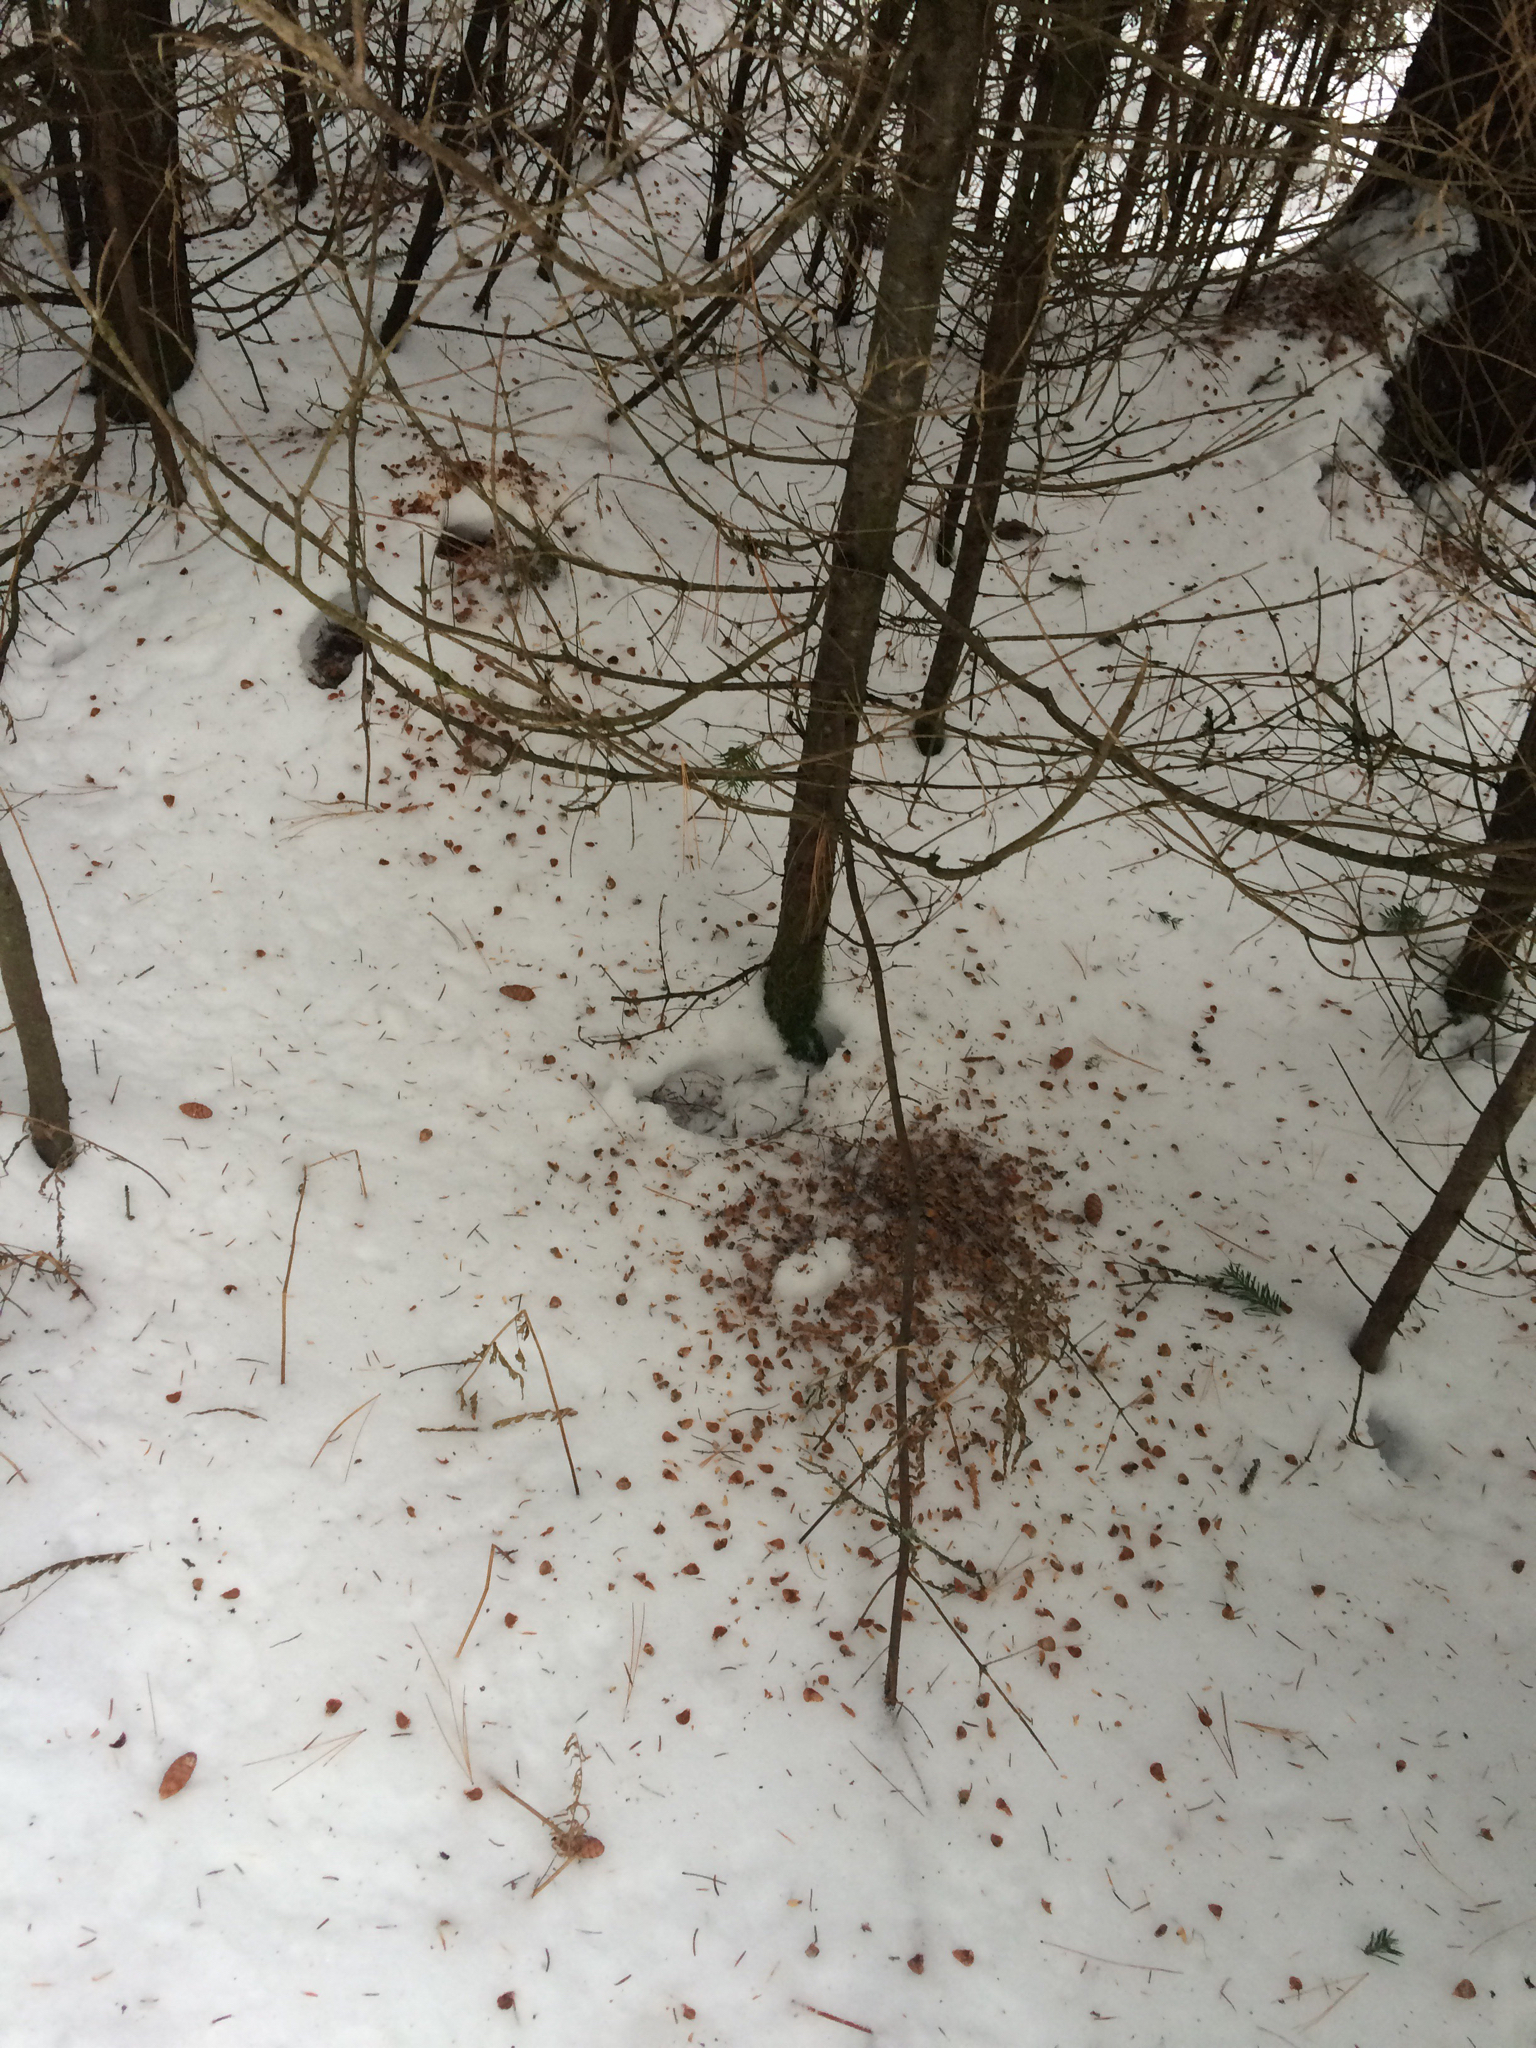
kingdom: Animalia
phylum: Chordata
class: Mammalia
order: Rodentia
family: Sciuridae
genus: Tamiasciurus
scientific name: Tamiasciurus hudsonicus
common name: Red squirrel
